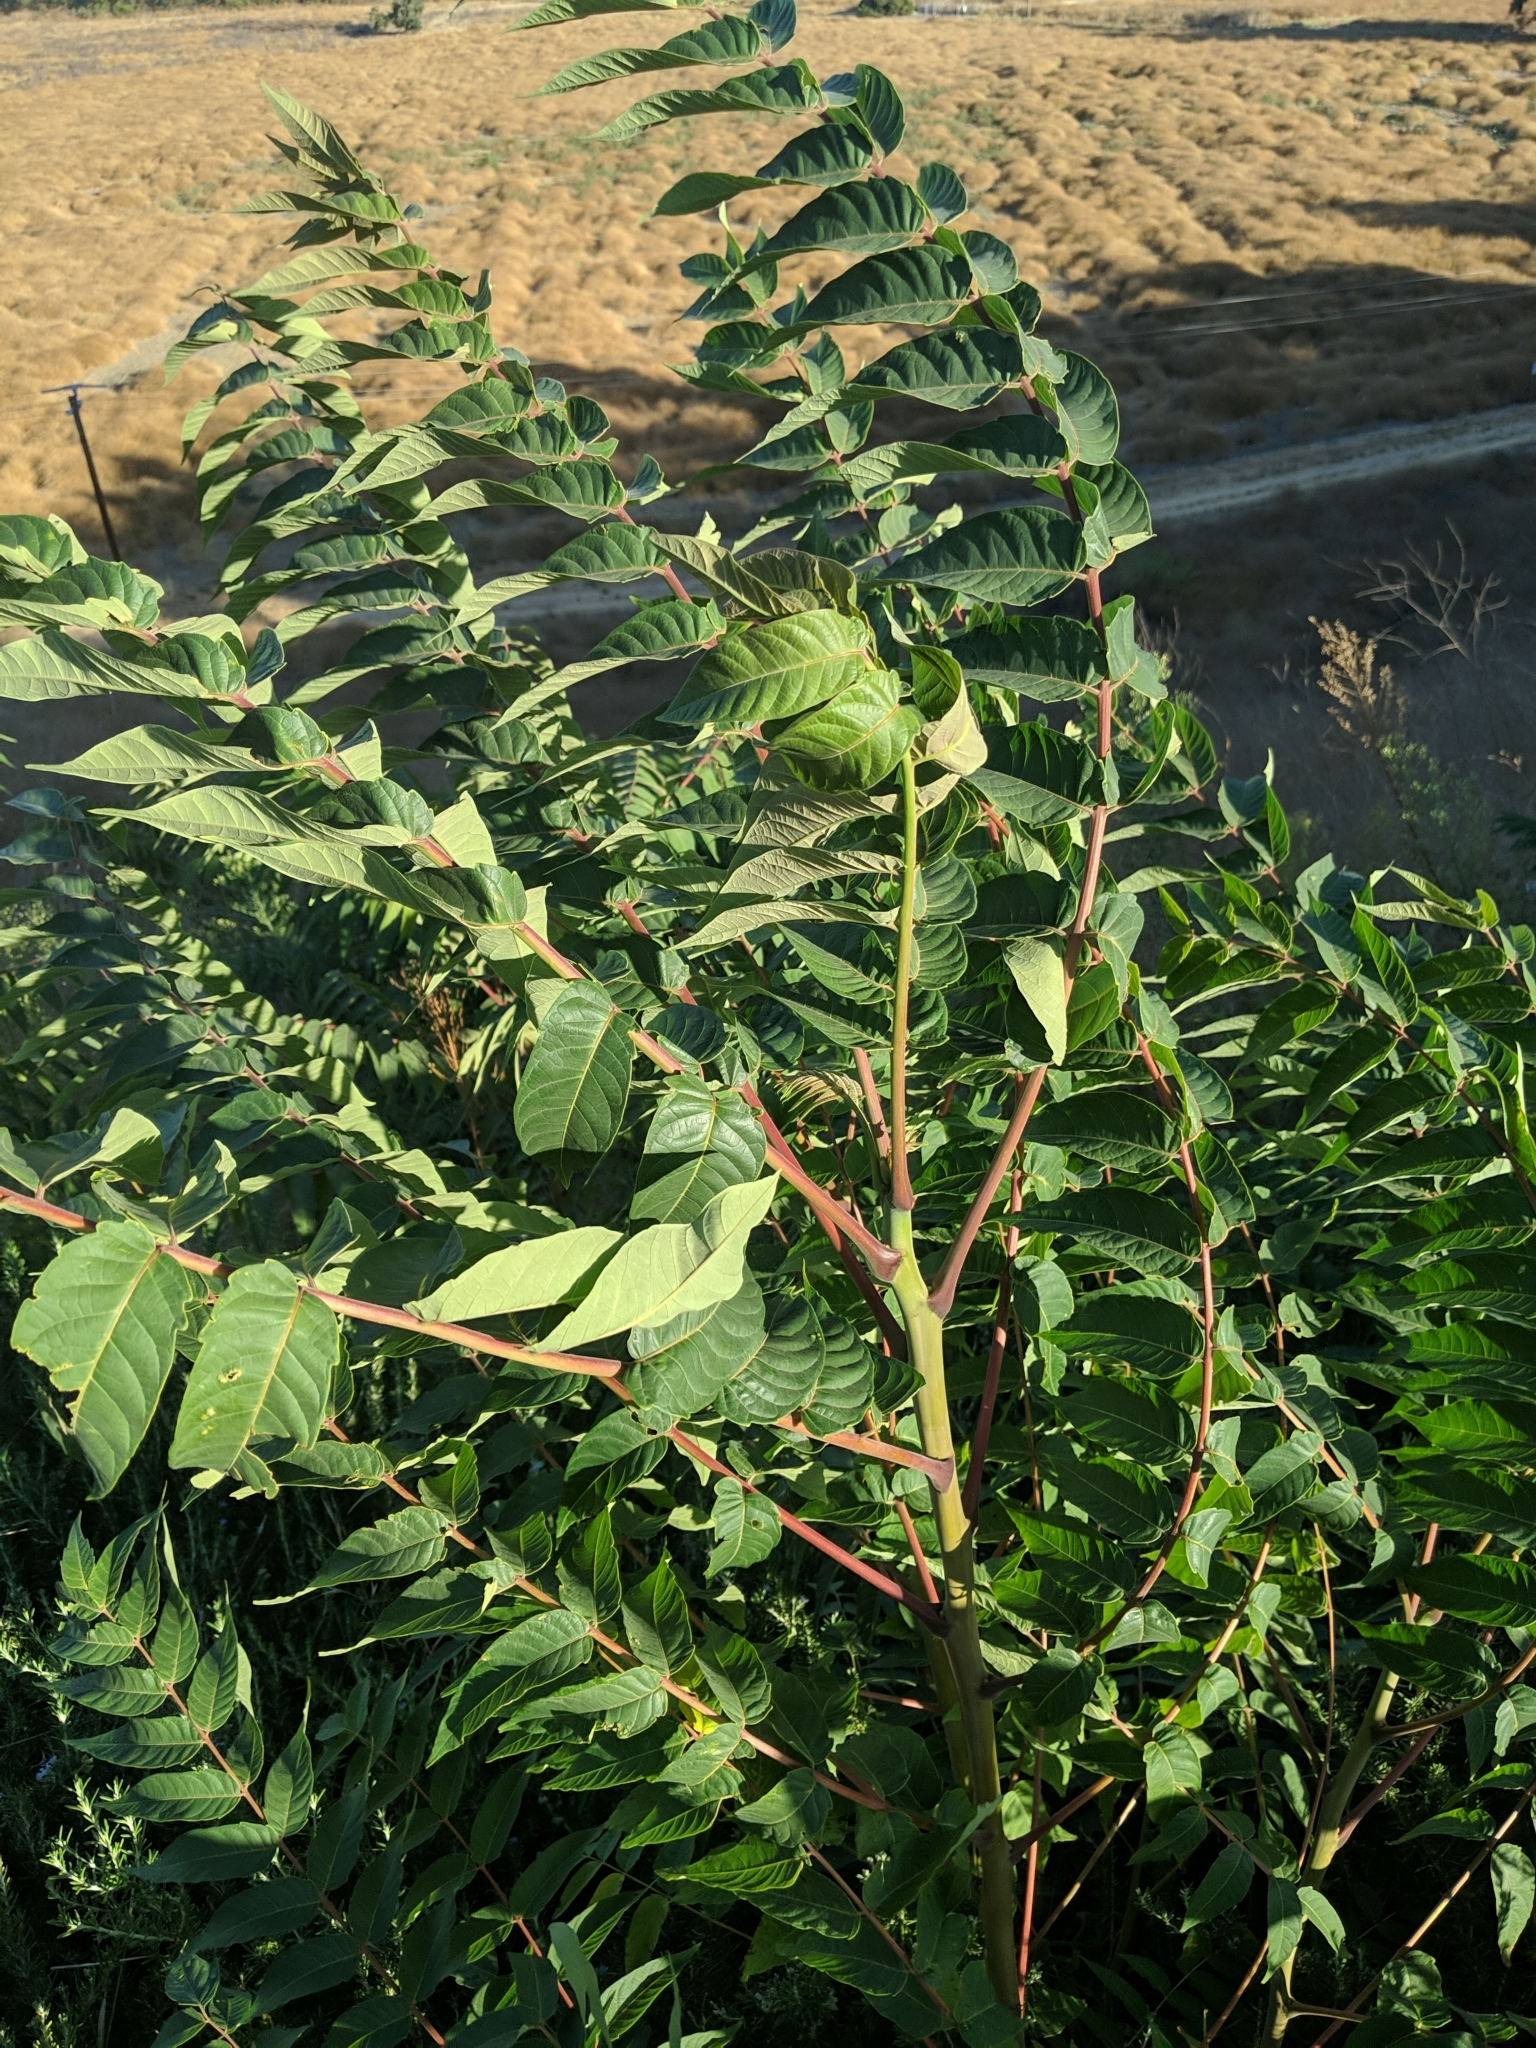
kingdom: Plantae
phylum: Tracheophyta
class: Magnoliopsida
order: Sapindales
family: Simaroubaceae
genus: Ailanthus
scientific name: Ailanthus altissima
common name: Tree-of-heaven
